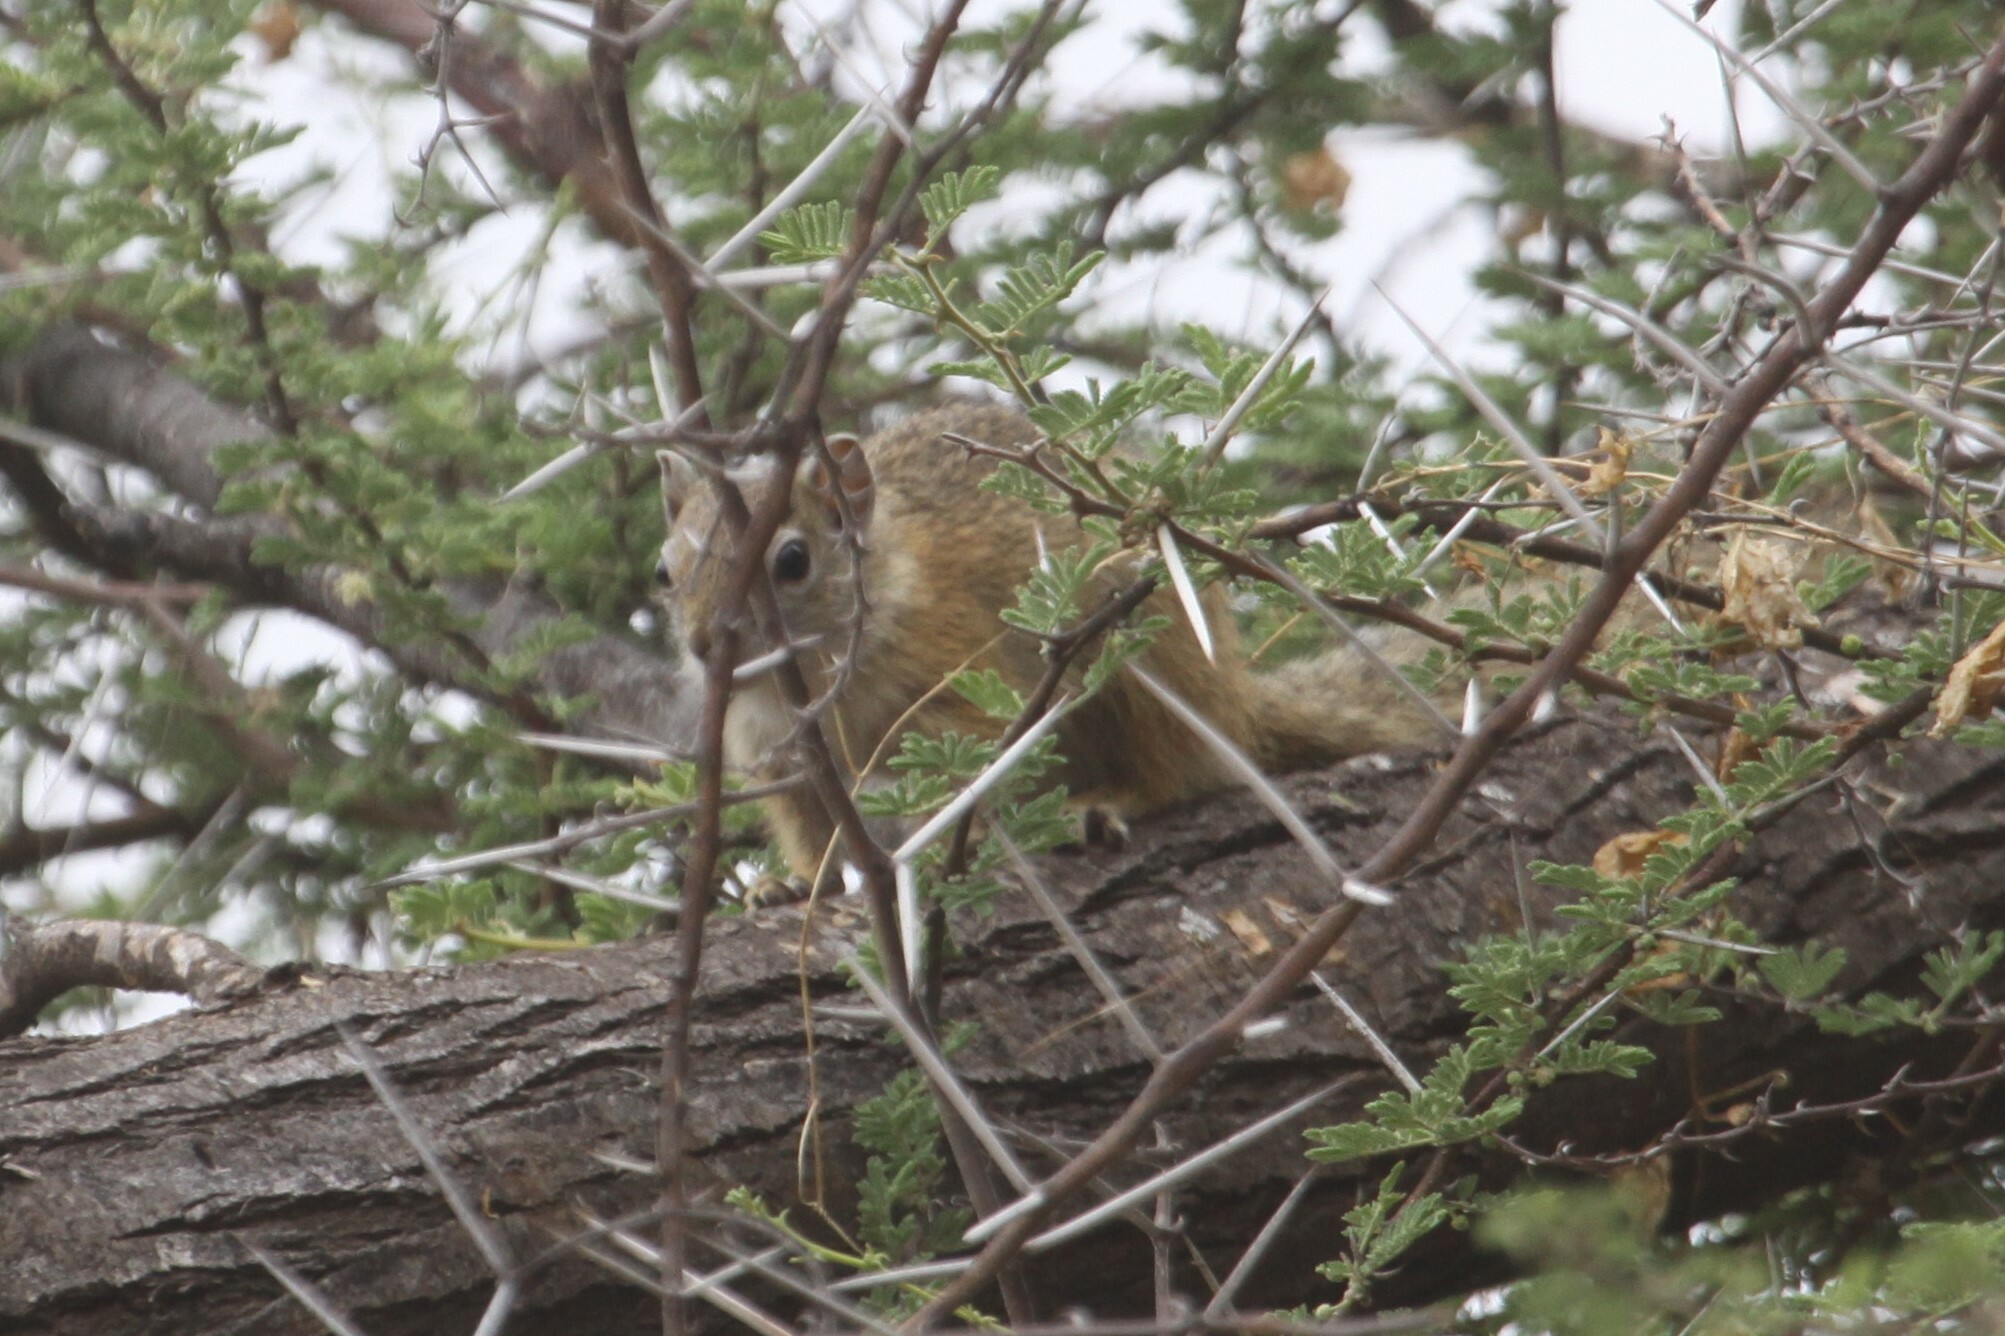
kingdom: Animalia
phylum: Chordata
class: Mammalia
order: Rodentia
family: Sciuridae
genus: Paraxerus
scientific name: Paraxerus cepapi
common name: Smith's bush squirrel
